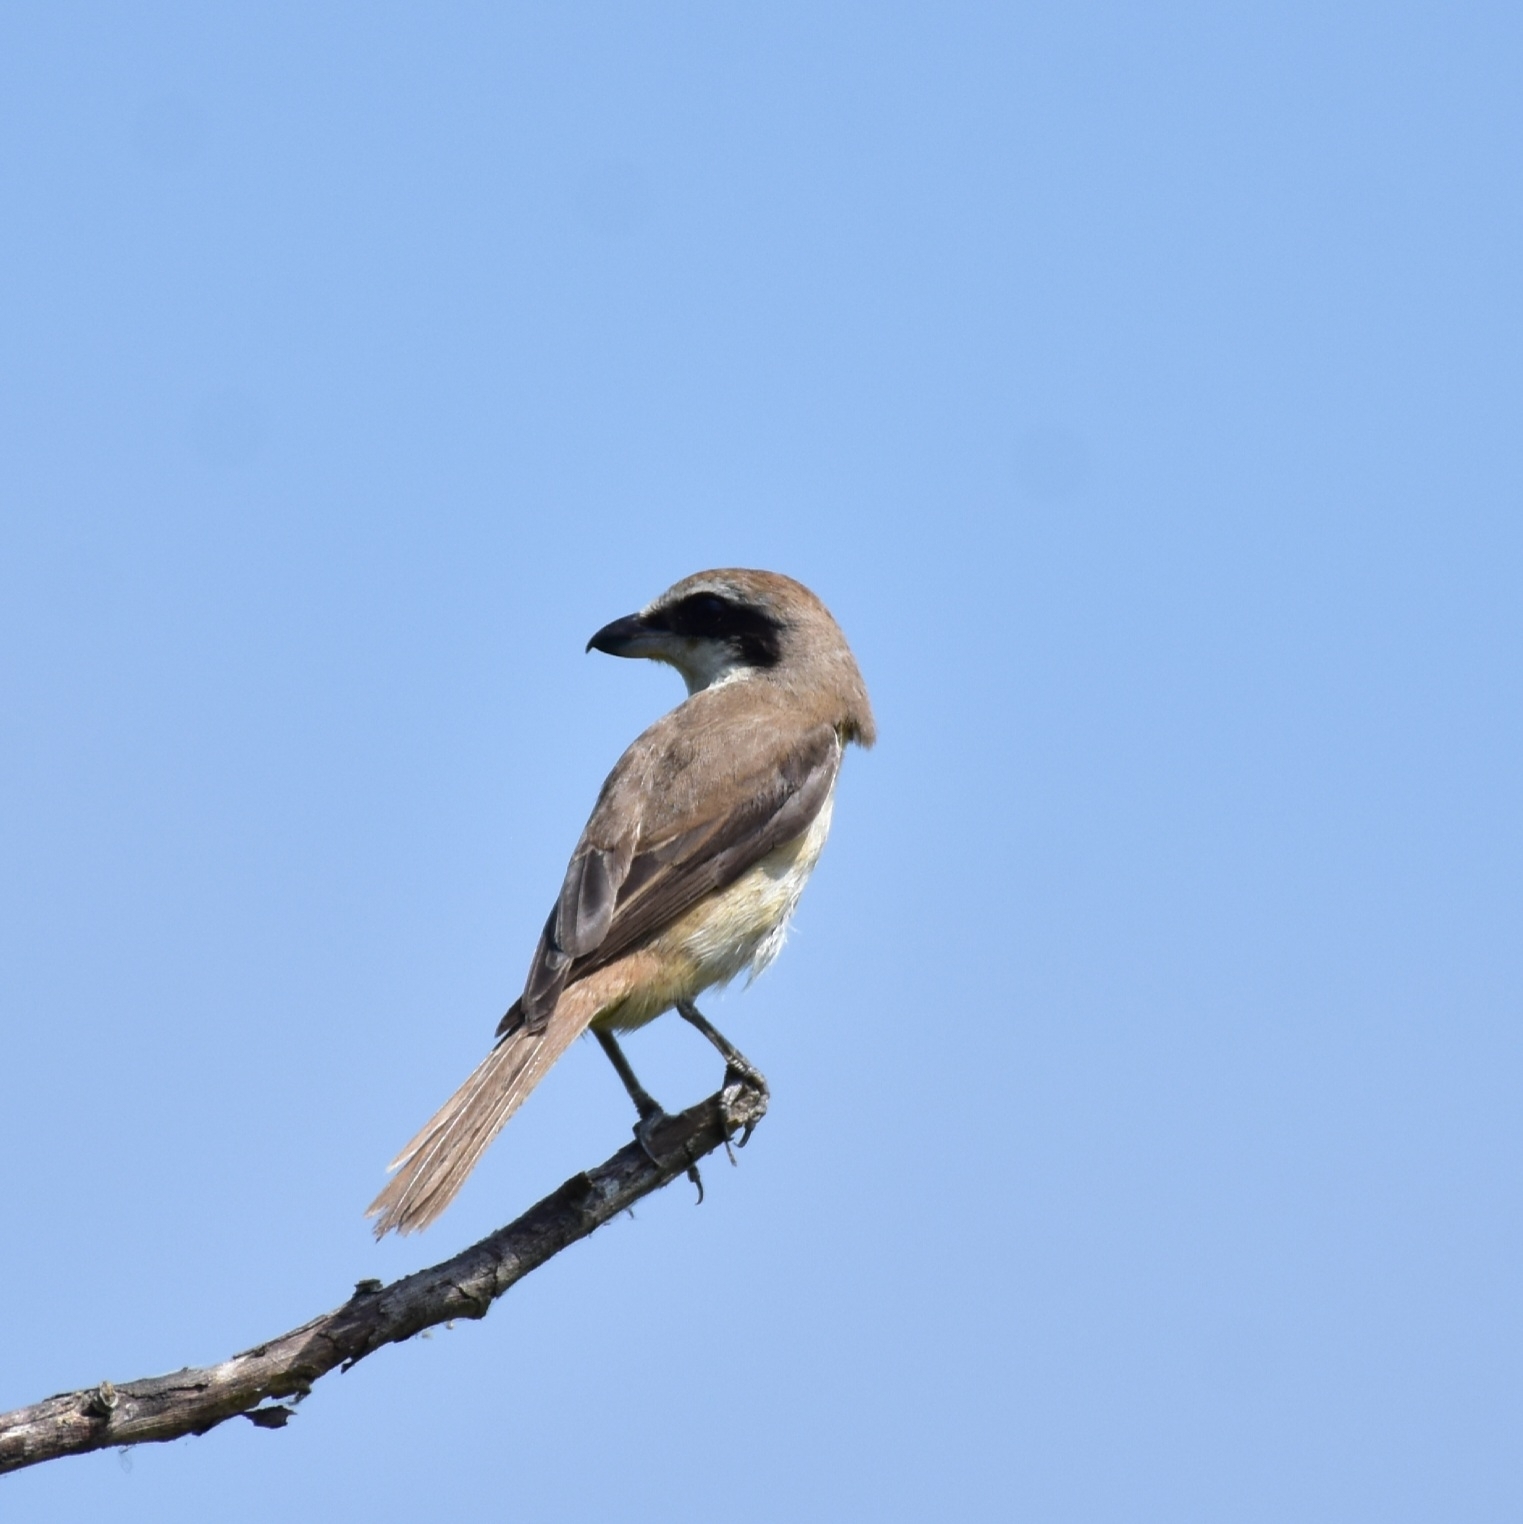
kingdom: Animalia
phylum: Chordata
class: Aves
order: Passeriformes
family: Laniidae
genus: Lanius
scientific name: Lanius cristatus
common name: Brown shrike
